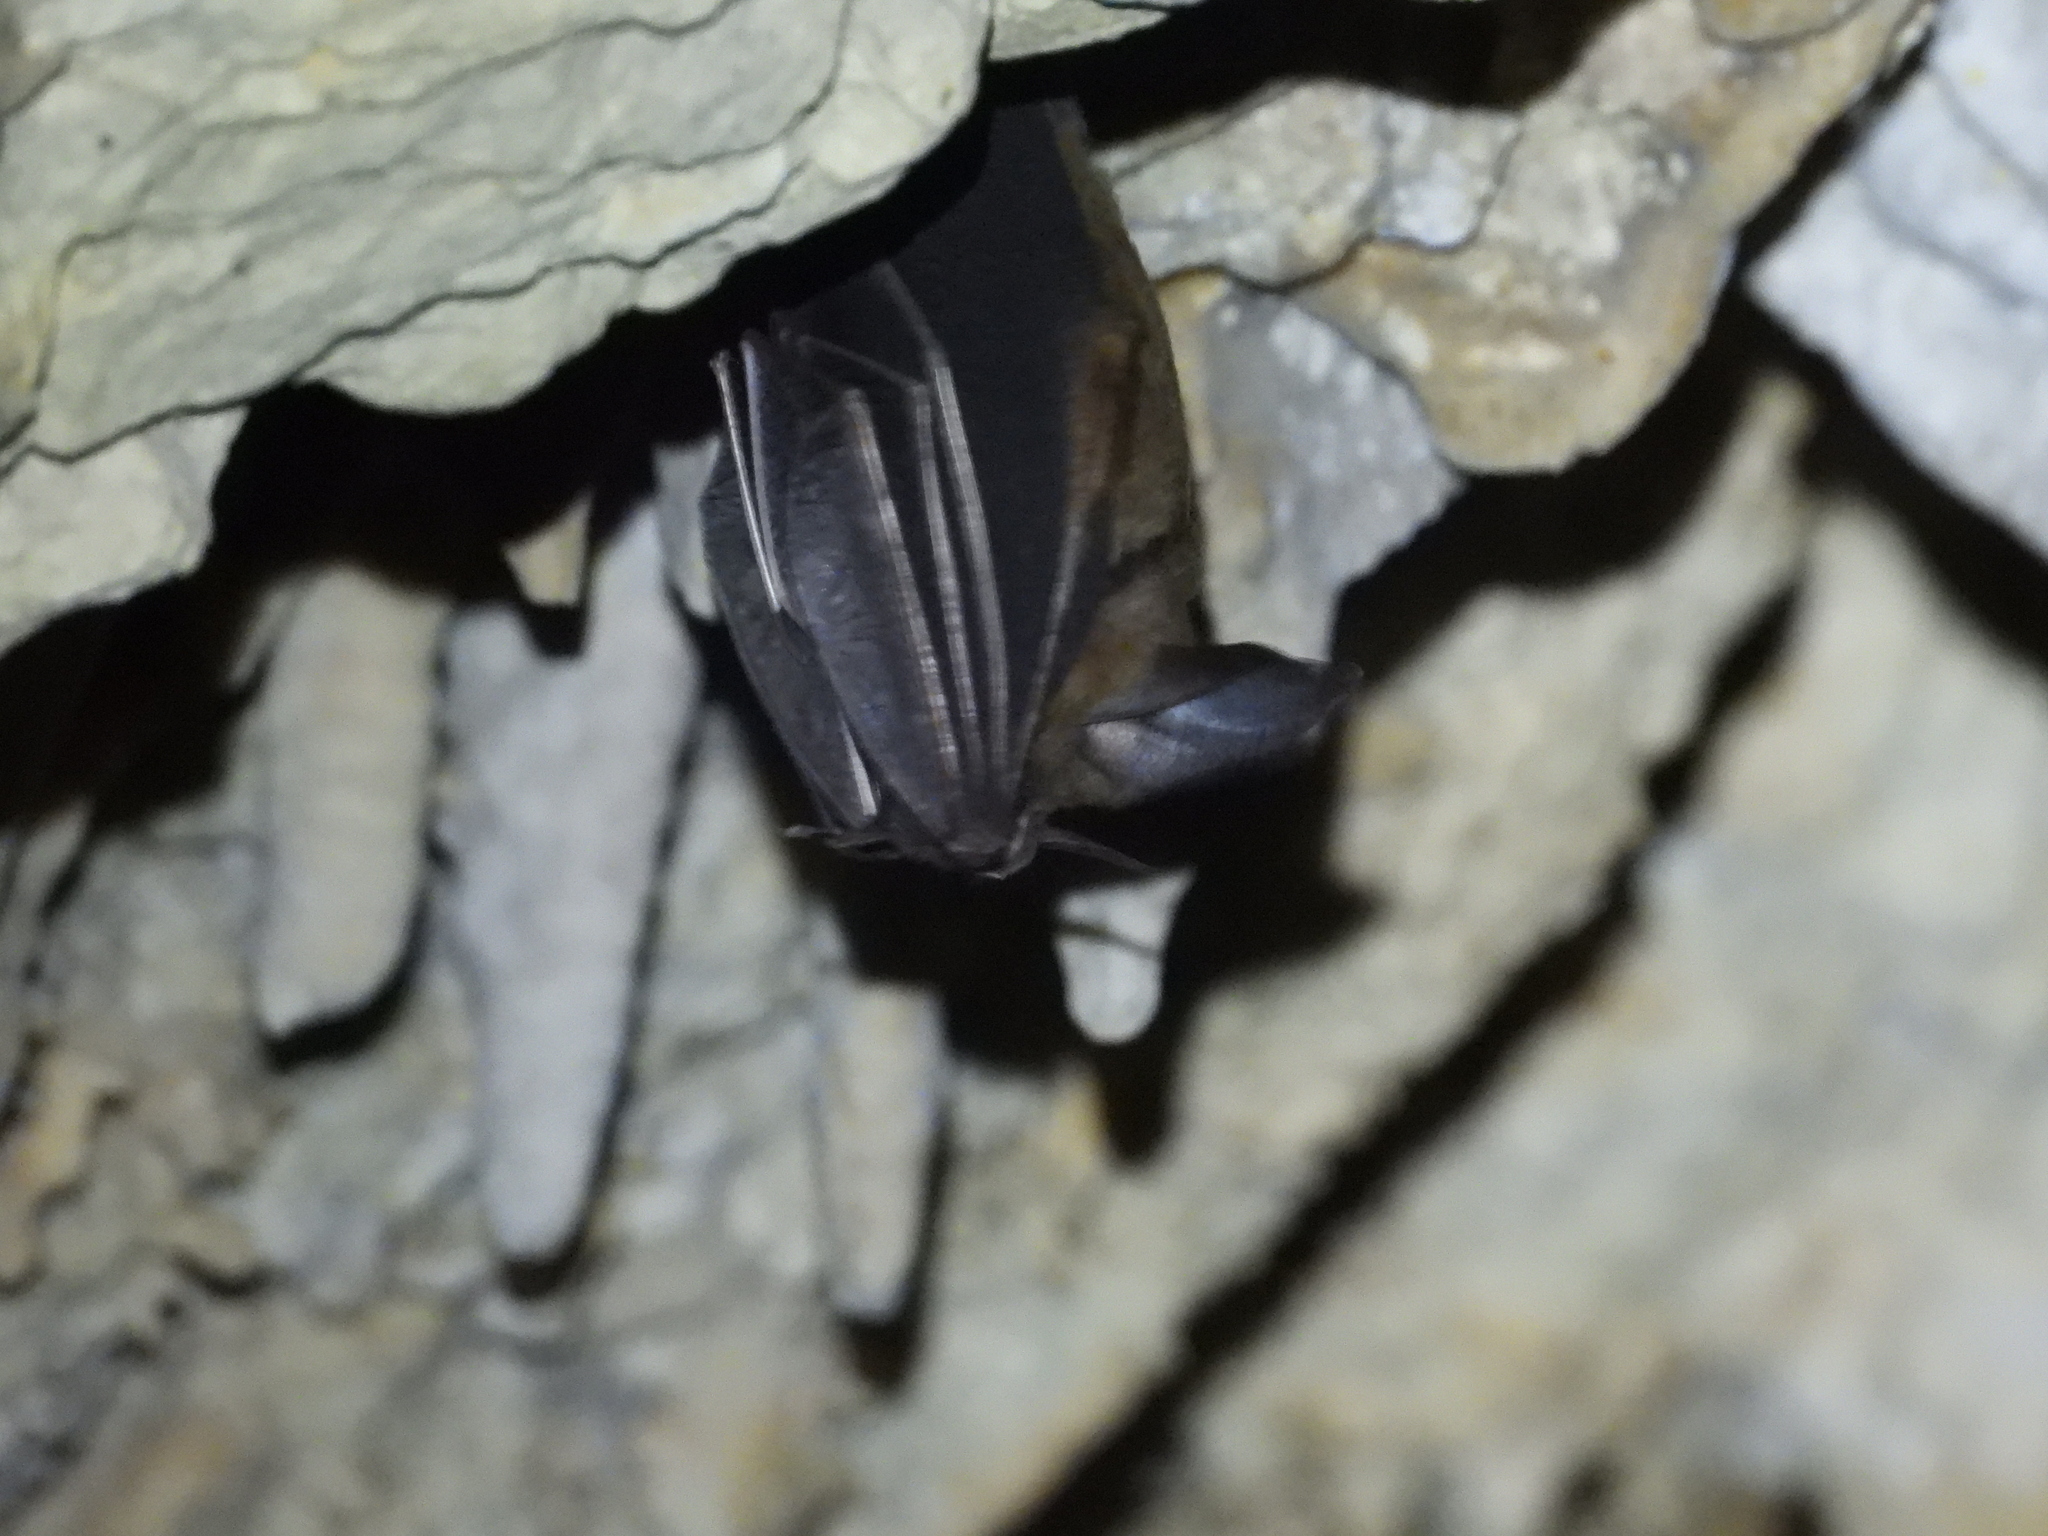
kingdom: Animalia
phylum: Chordata
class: Mammalia
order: Chiroptera
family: Phyllostomidae
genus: Mimon
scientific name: Mimon cozumelae
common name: Cozumelan golden bat
